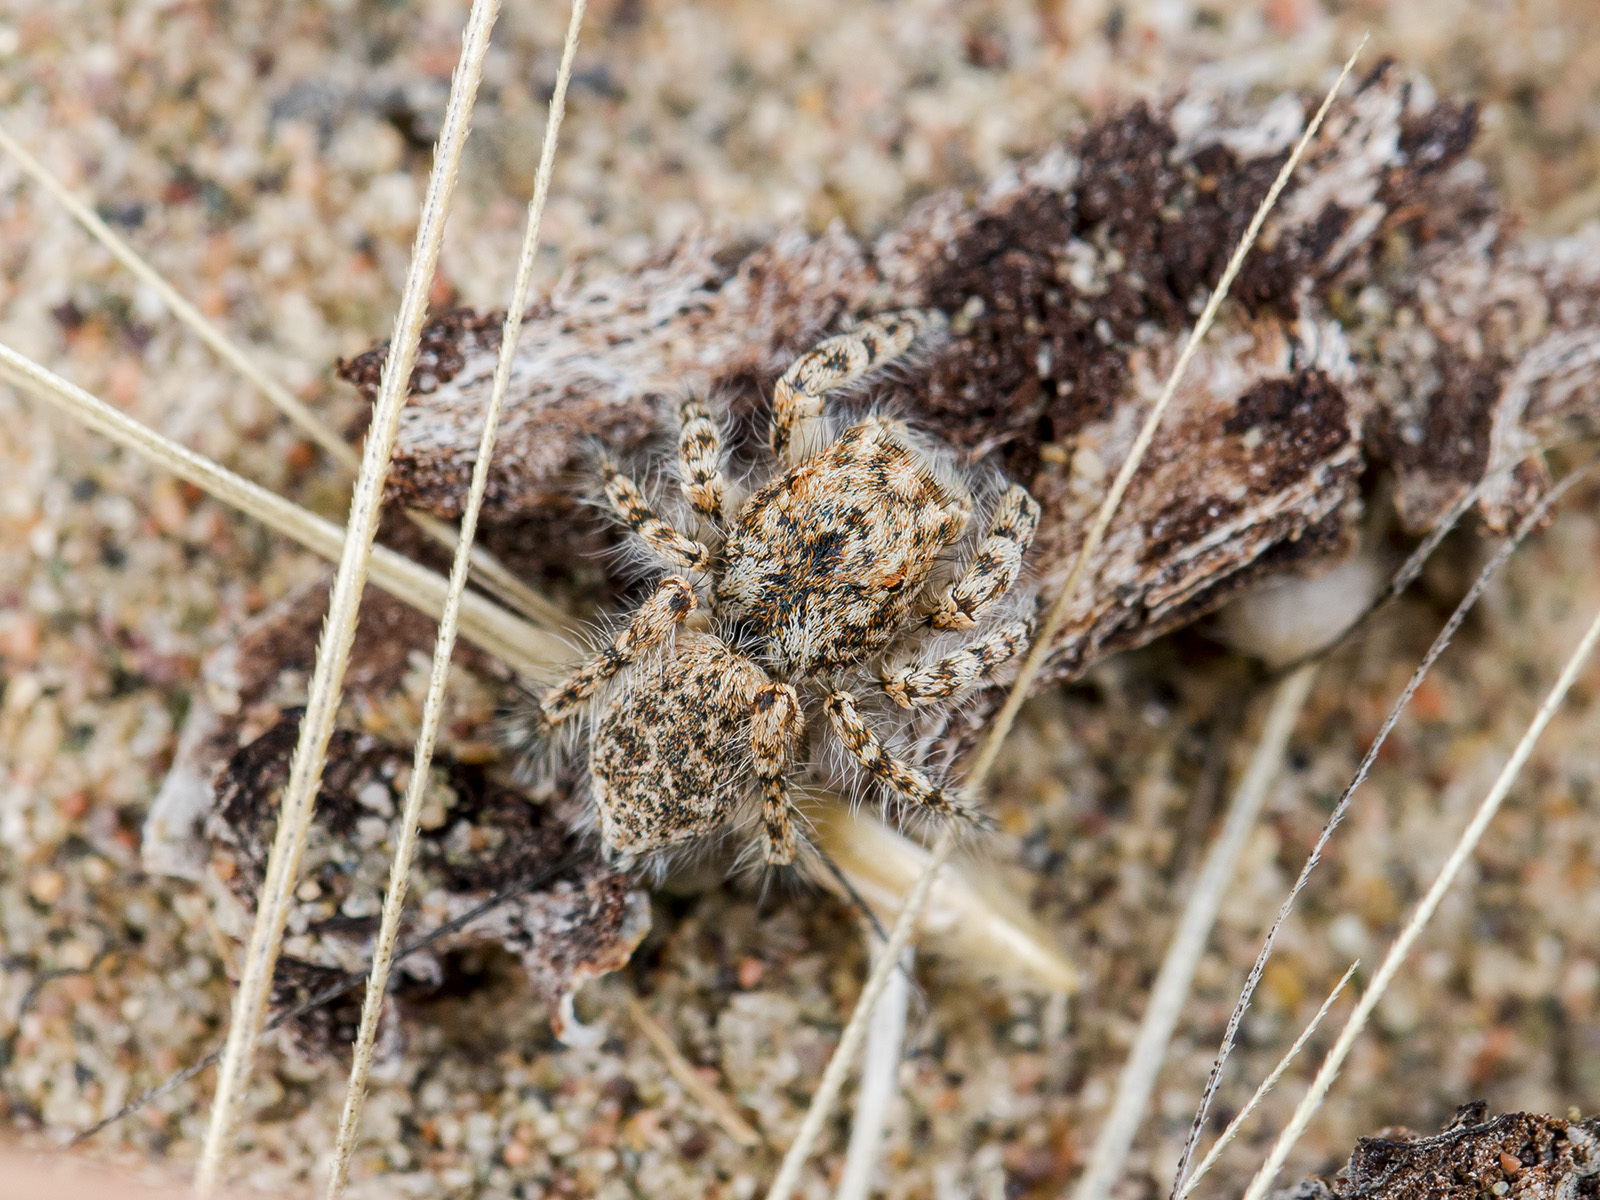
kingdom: Animalia
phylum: Arthropoda
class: Arachnida
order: Araneae
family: Salticidae
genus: Yllenus
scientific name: Yllenus uiguricus
